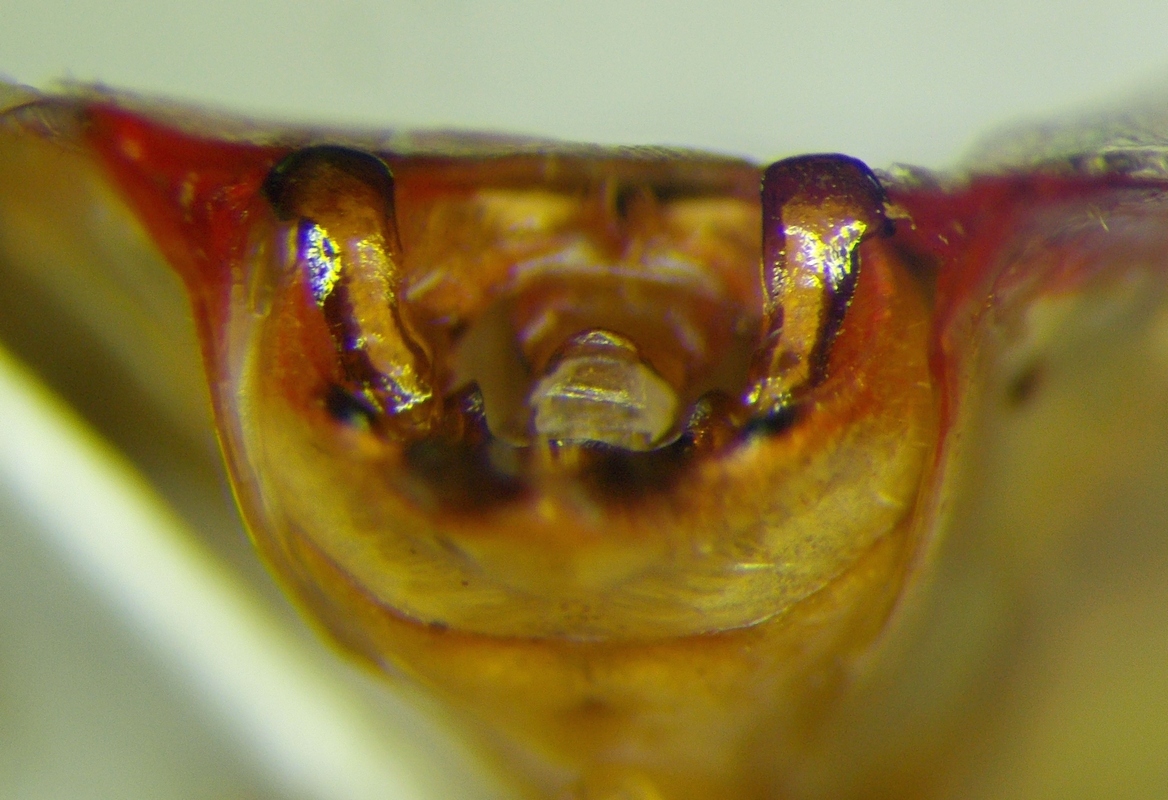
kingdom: Animalia
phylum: Arthropoda
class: Insecta
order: Hemiptera
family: Acanthosomatidae
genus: Elasmostethus
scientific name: Elasmostethus interstinctus
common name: Birch shieldbug
